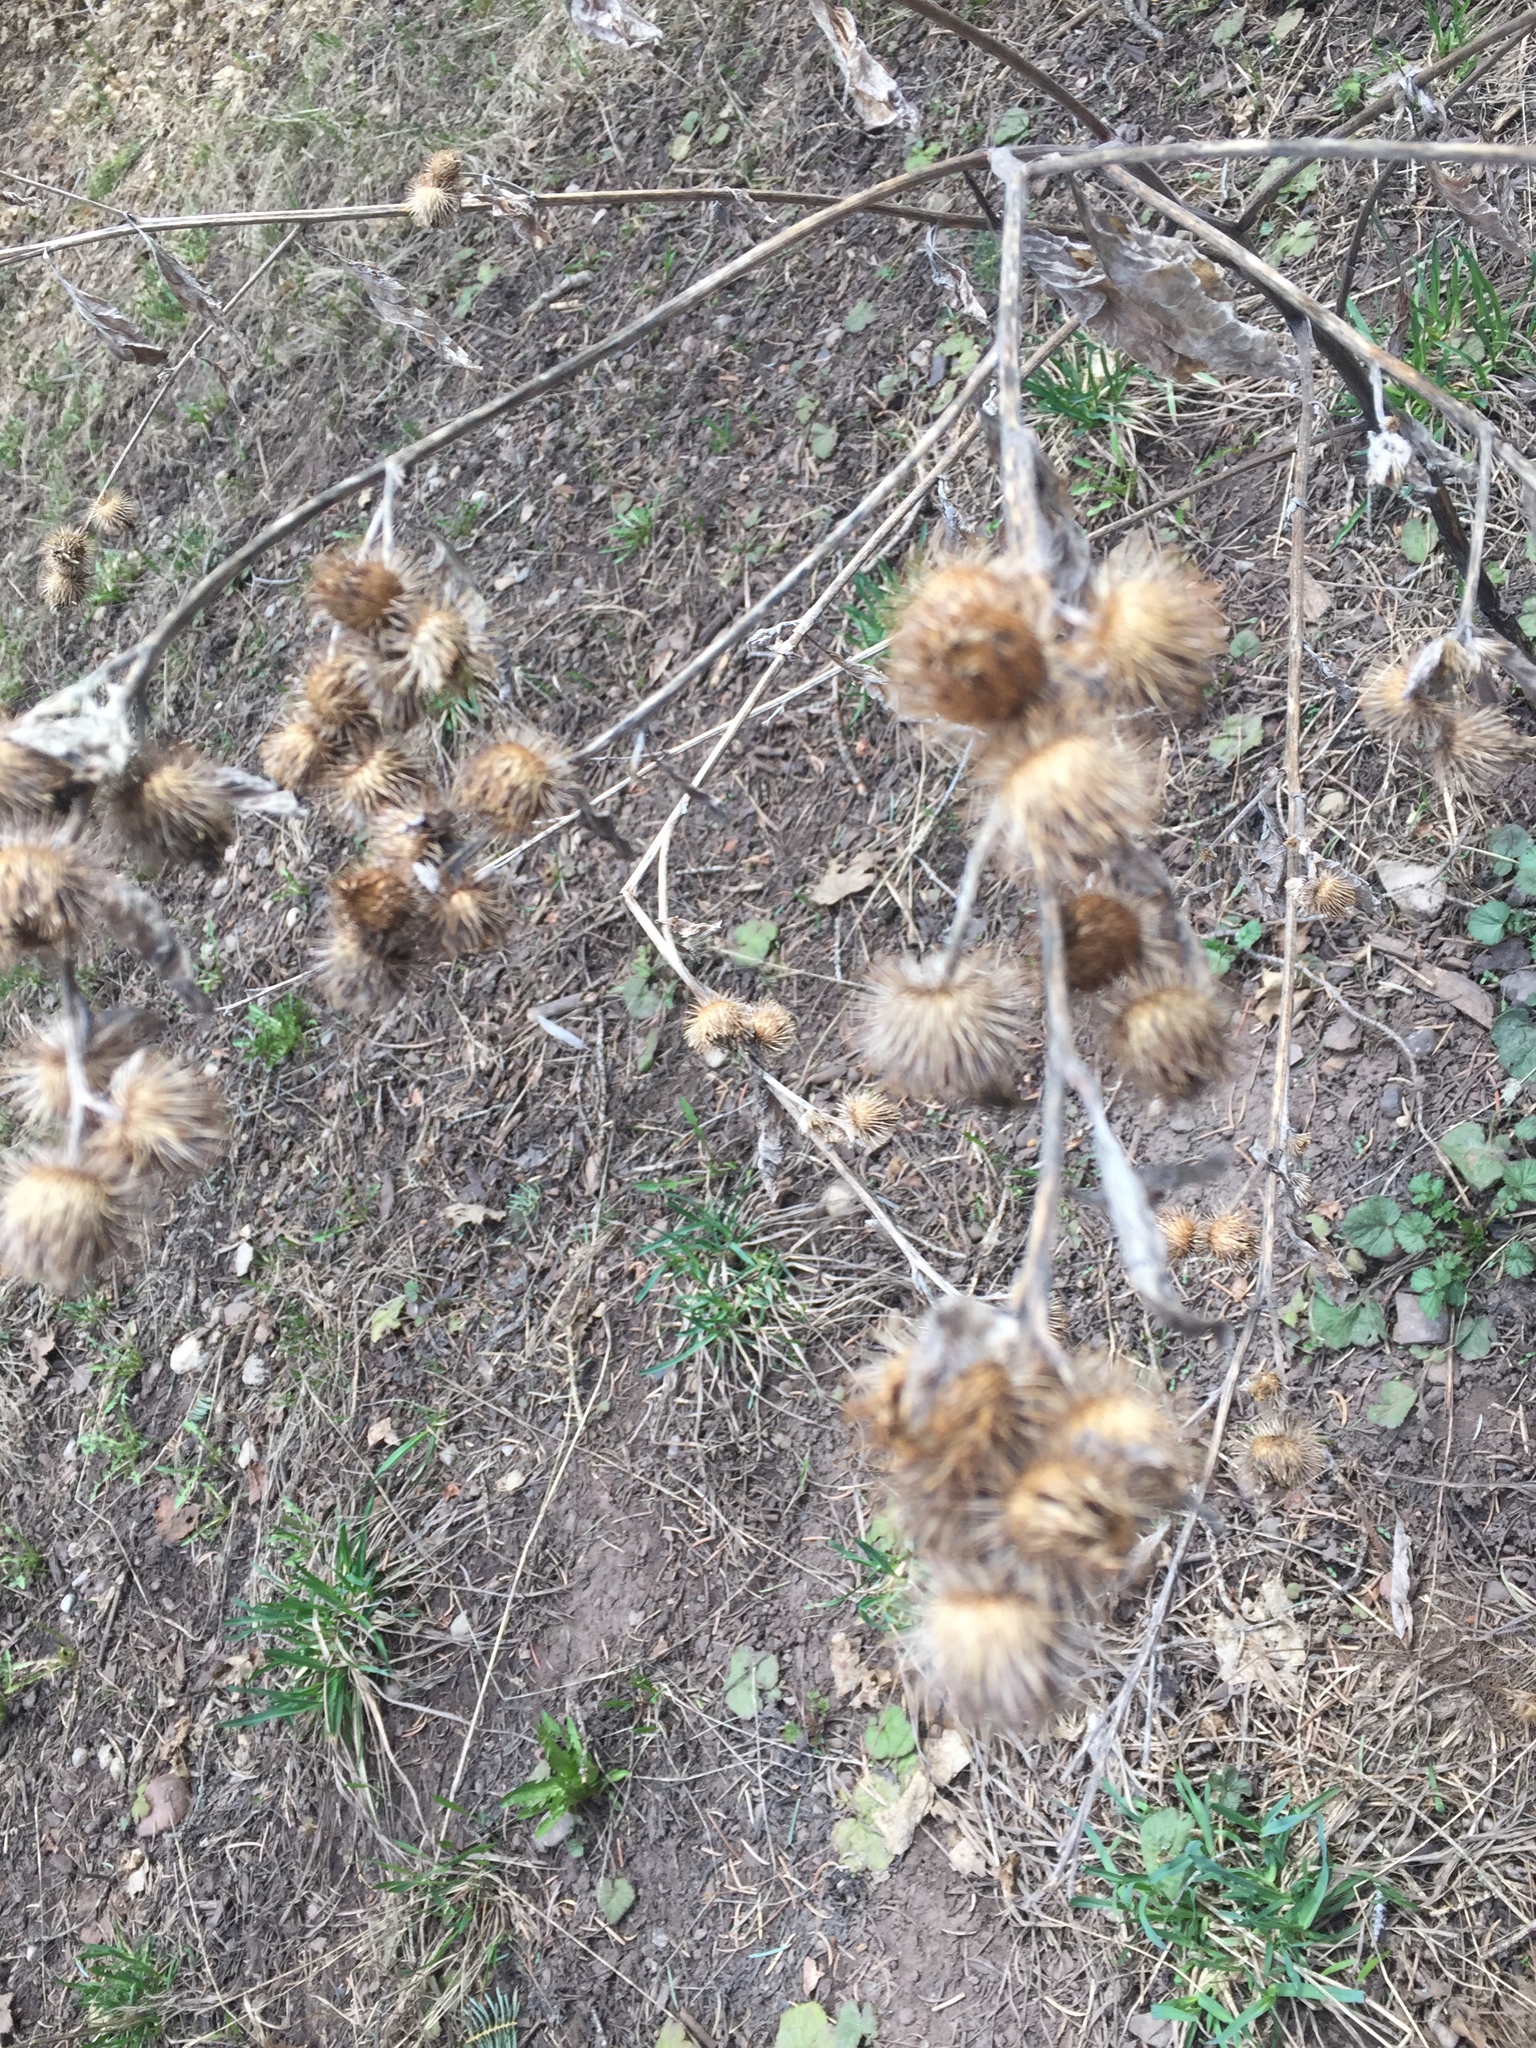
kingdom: Plantae
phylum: Tracheophyta
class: Magnoliopsida
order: Asterales
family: Asteraceae
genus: Arctium
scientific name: Arctium minus
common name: Lesser burdock
